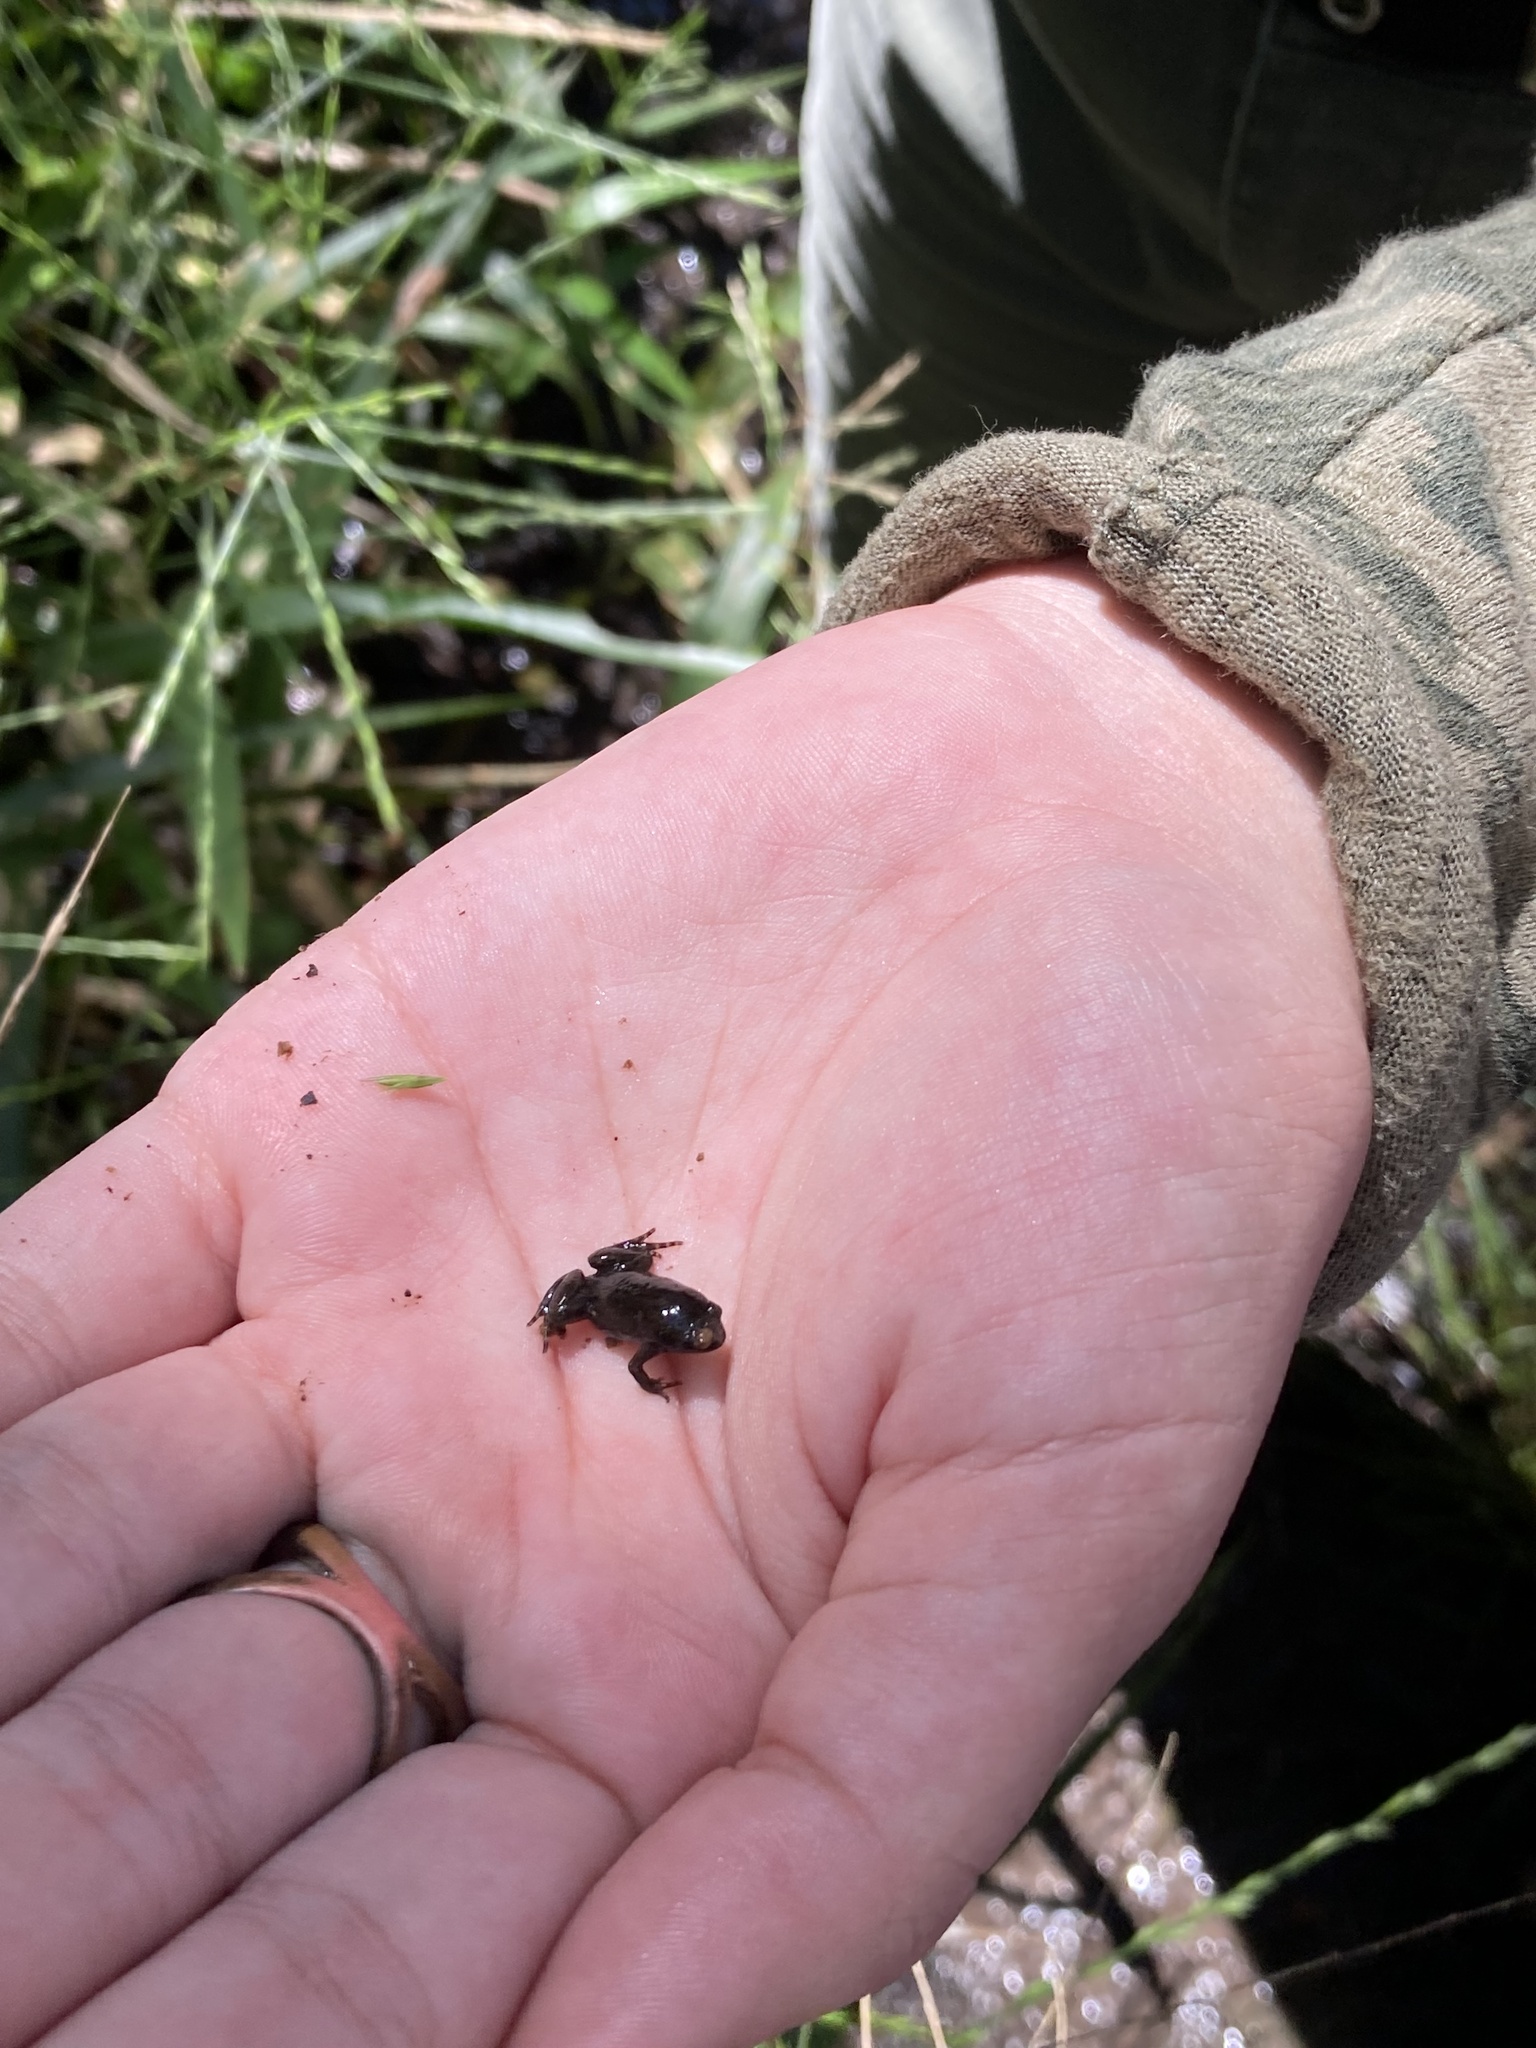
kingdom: Animalia
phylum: Chordata
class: Amphibia
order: Anura
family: Microhylidae
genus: Gastrophryne
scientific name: Gastrophryne carolinensis
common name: Eastern narrowmouth toad
